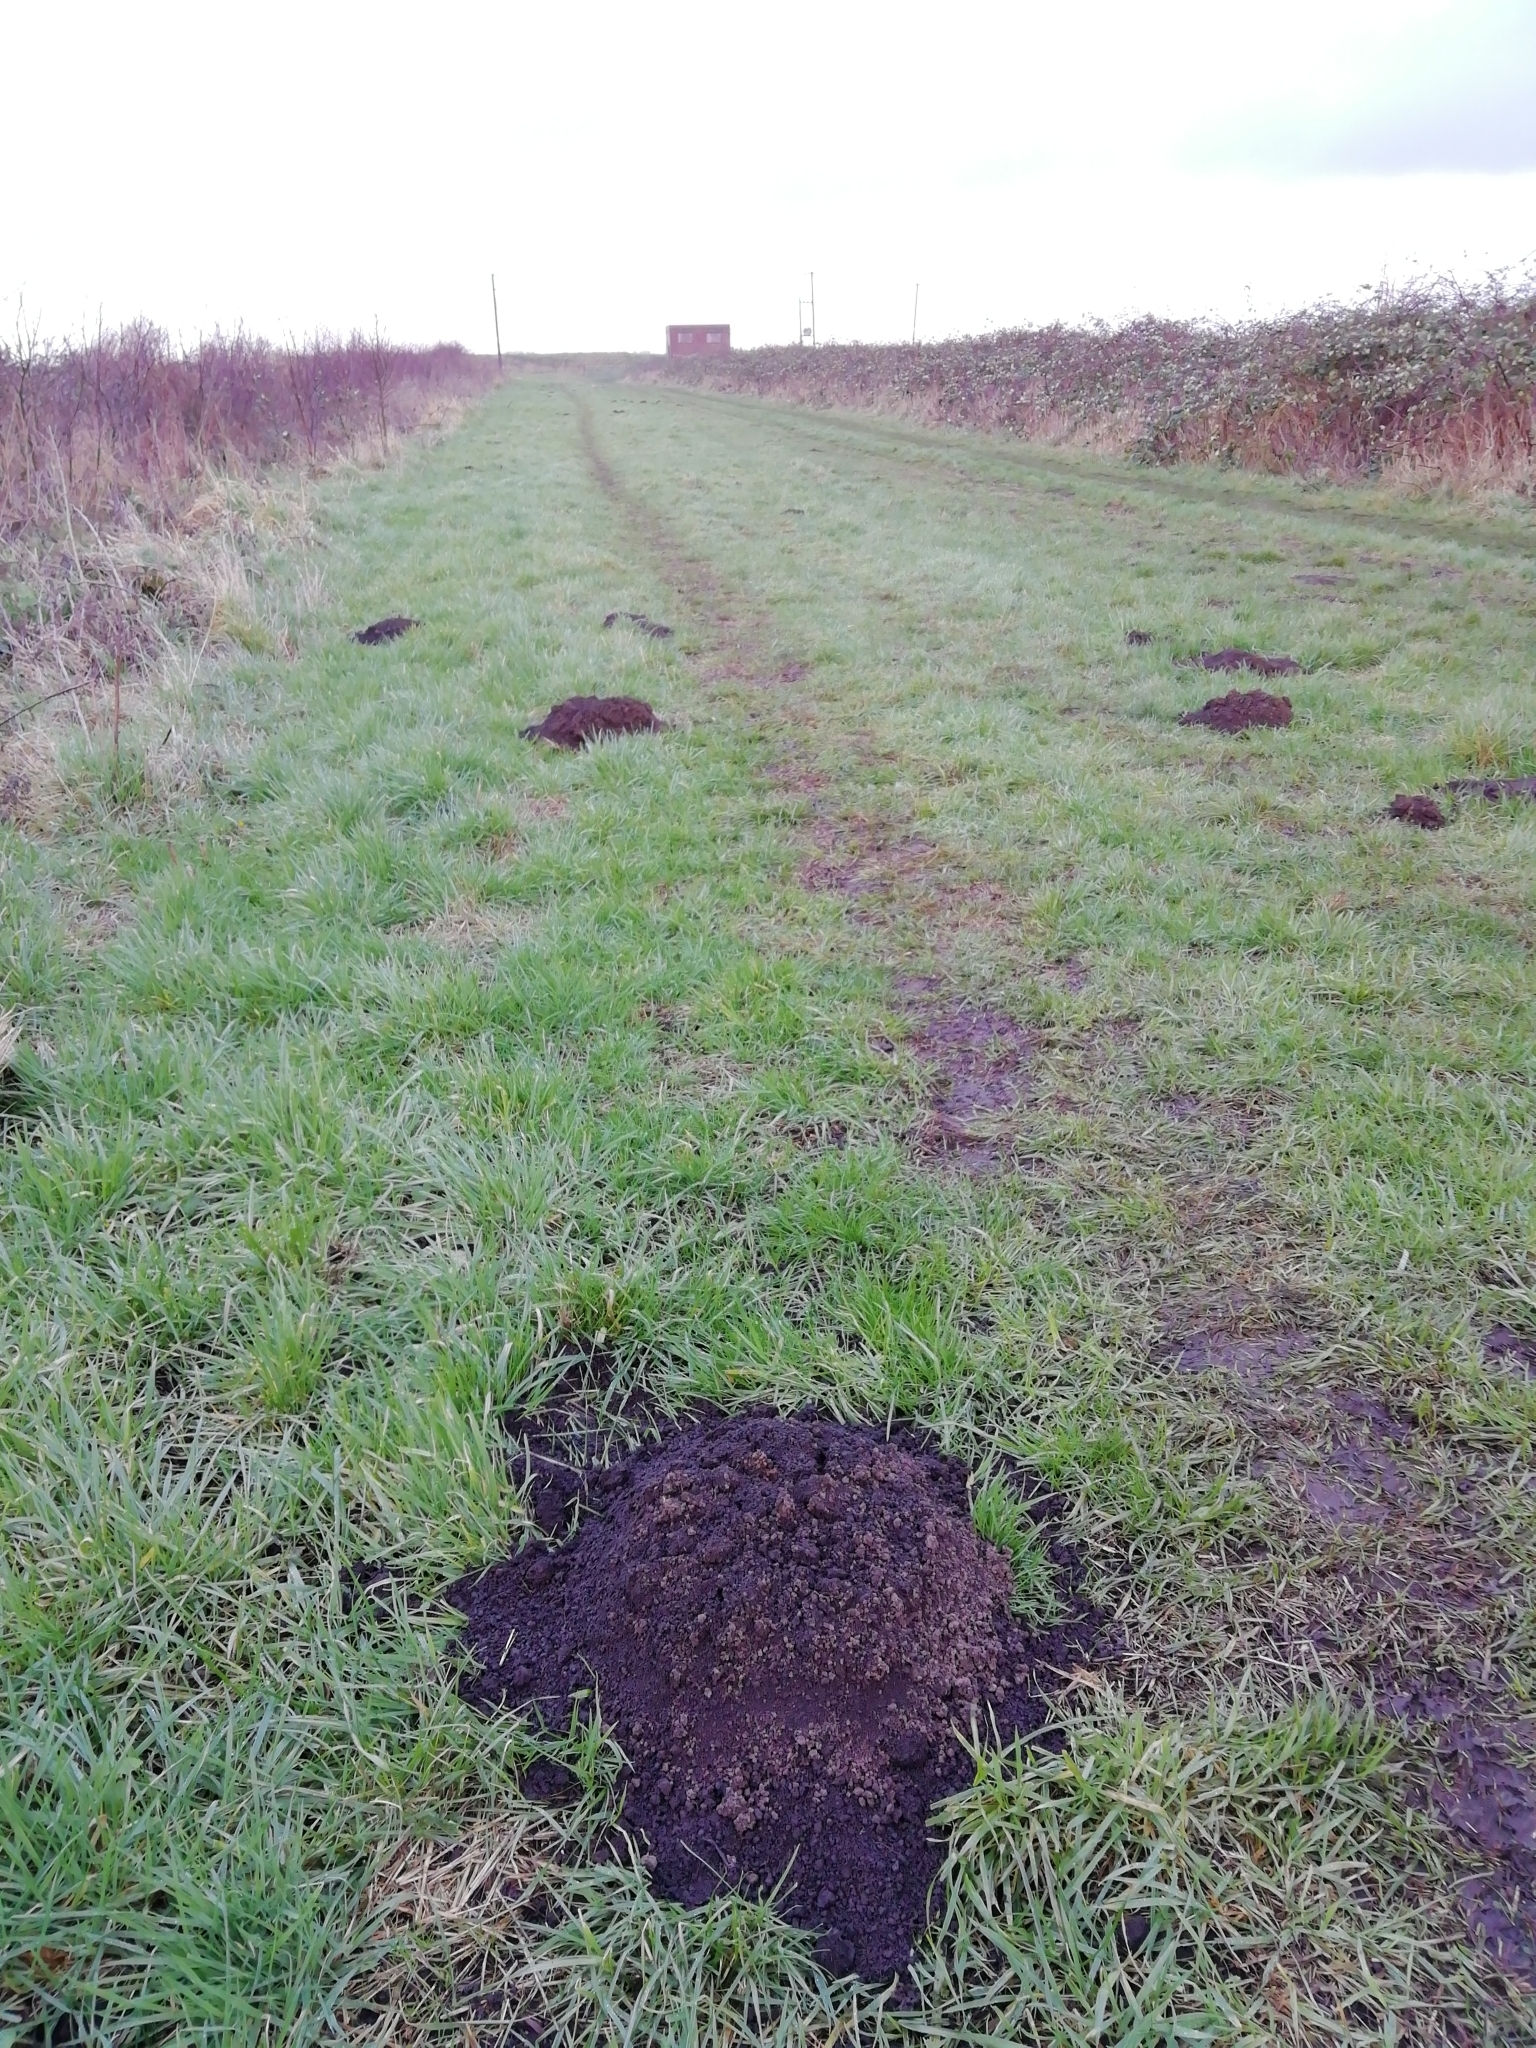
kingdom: Animalia
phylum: Chordata
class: Mammalia
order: Soricomorpha
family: Talpidae
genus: Talpa
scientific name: Talpa europaea
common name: European mole
